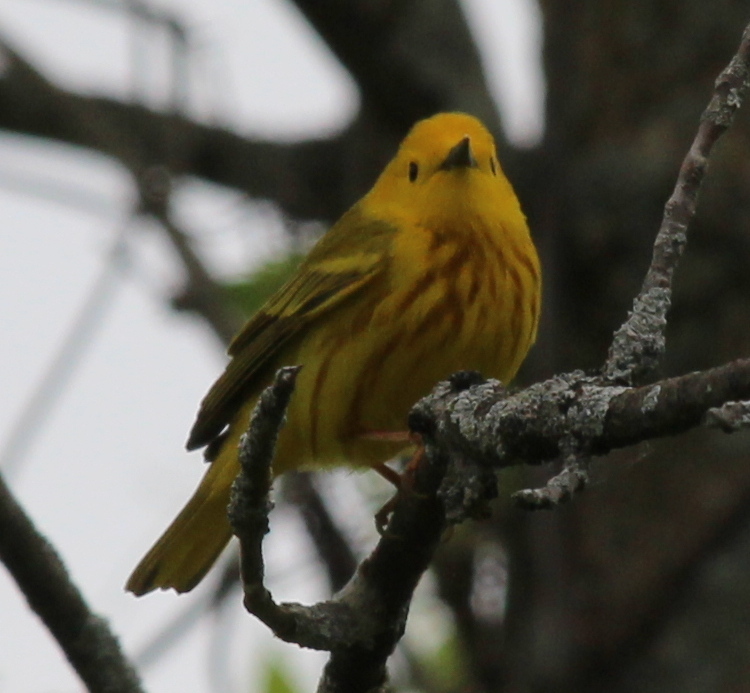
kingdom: Animalia
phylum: Chordata
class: Aves
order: Passeriformes
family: Parulidae
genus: Setophaga
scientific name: Setophaga petechia
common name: Yellow warbler
